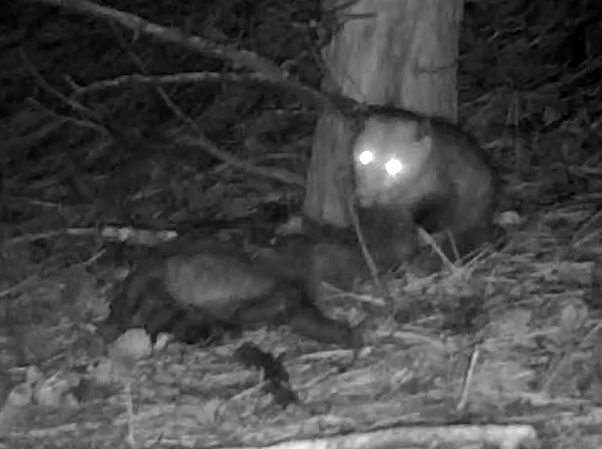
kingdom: Animalia
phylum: Chordata
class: Mammalia
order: Didelphimorphia
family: Didelphidae
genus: Didelphis
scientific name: Didelphis virginiana
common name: Virginia opossum
